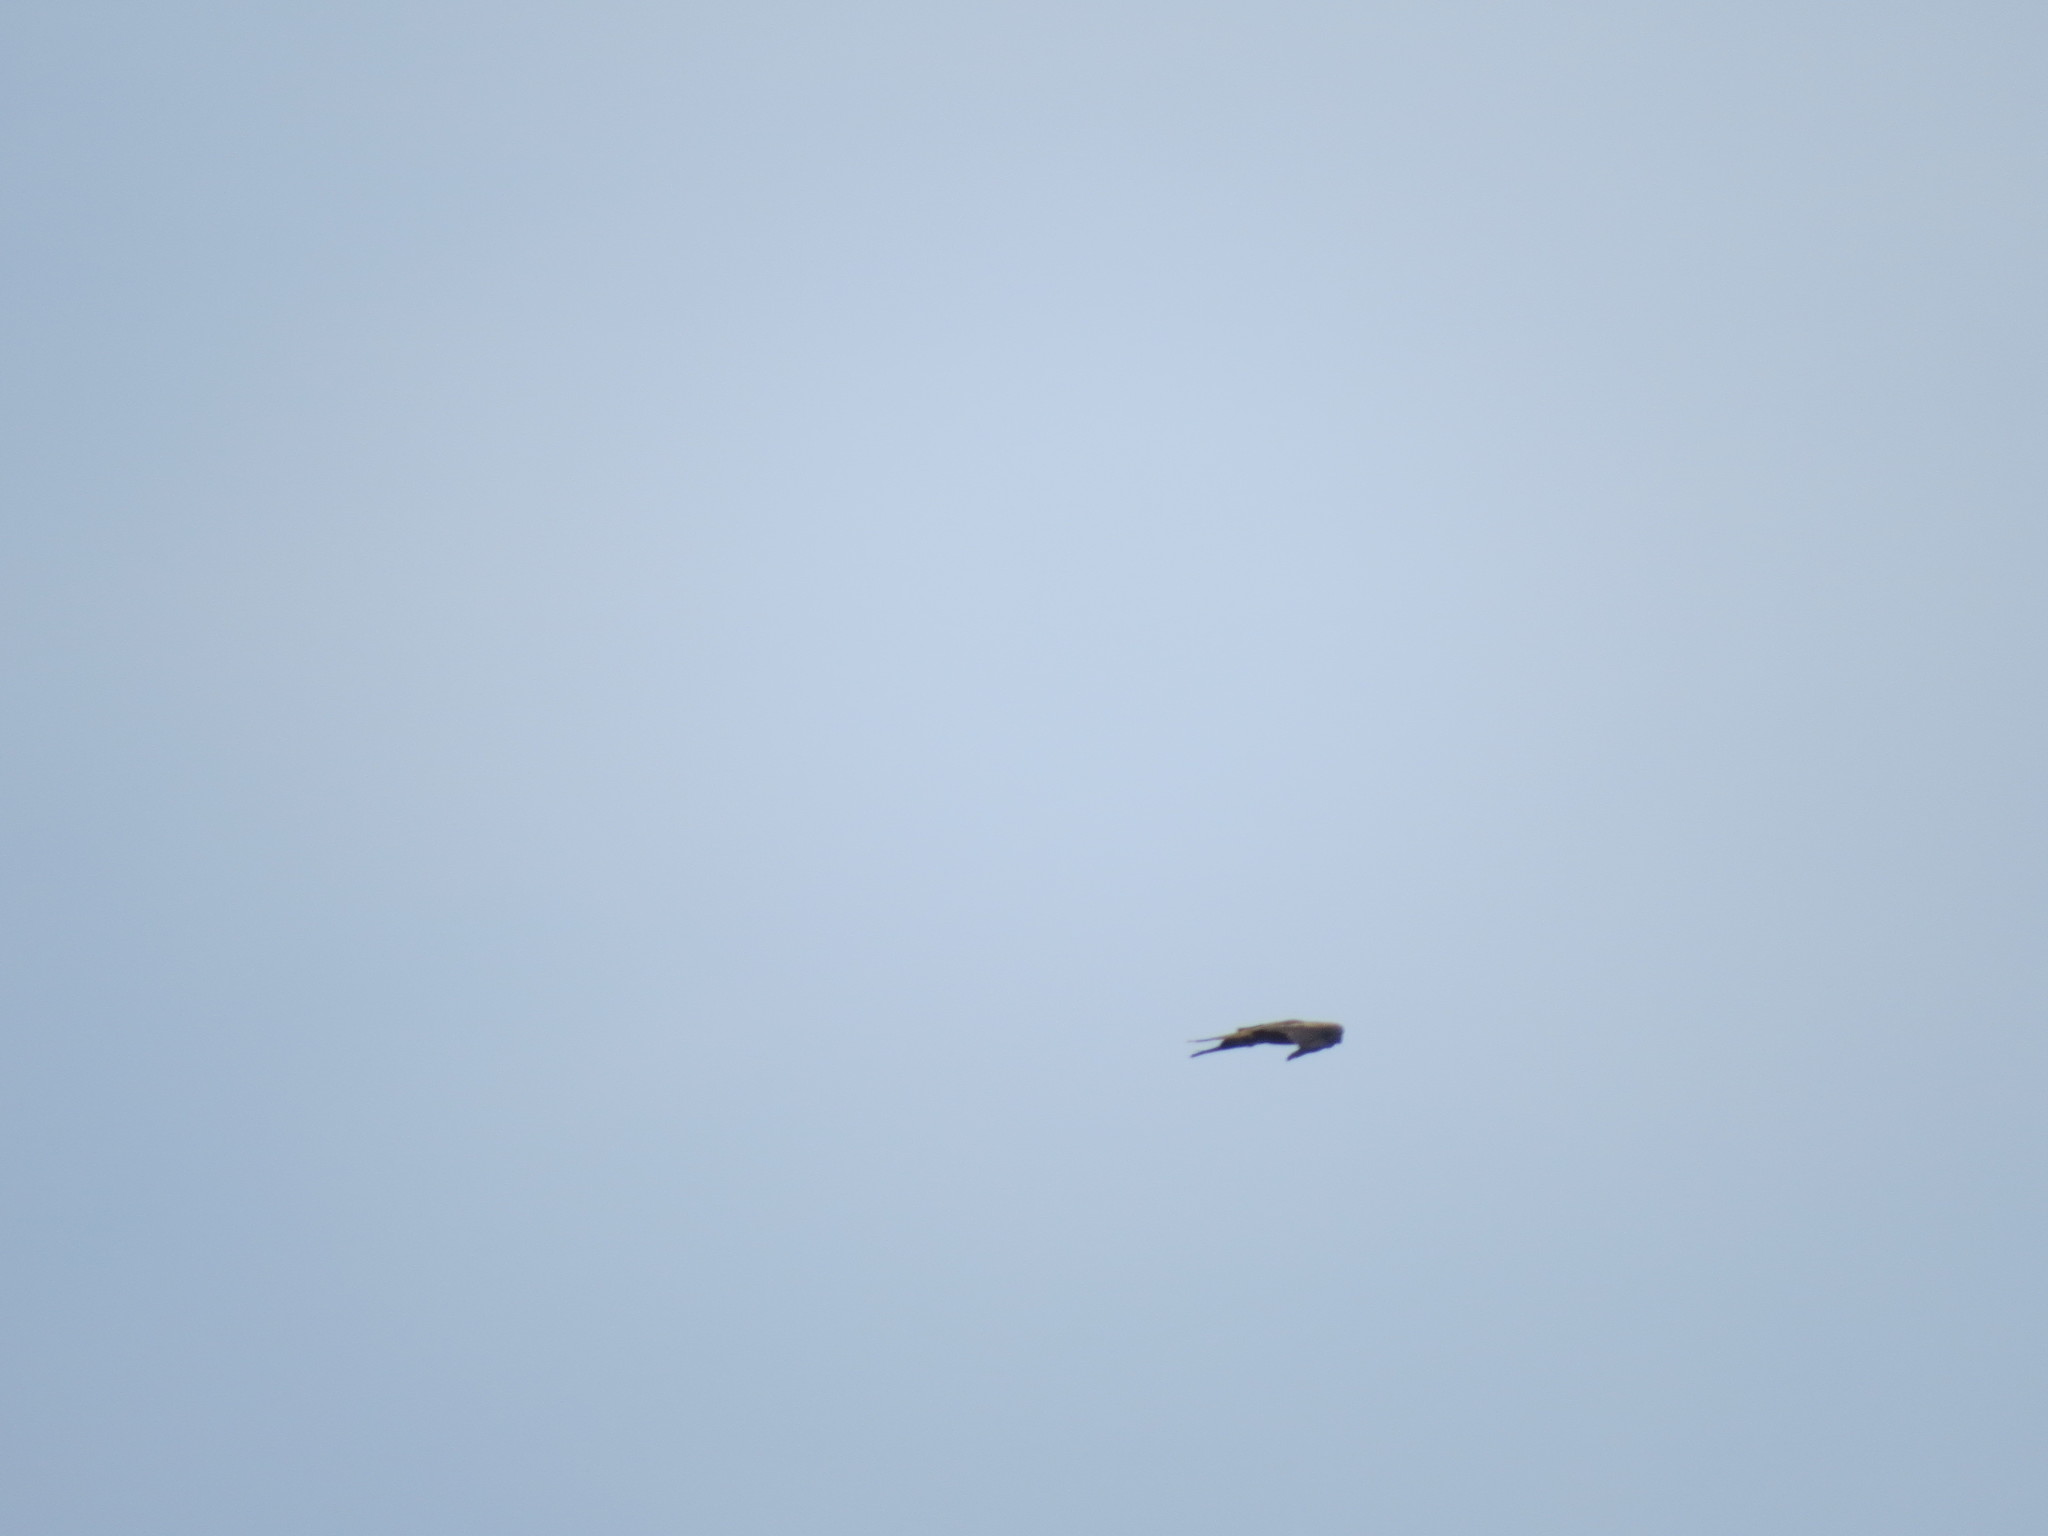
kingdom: Animalia
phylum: Chordata
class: Aves
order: Accipitriformes
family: Accipitridae
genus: Milvus
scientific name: Milvus migrans
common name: Black kite
